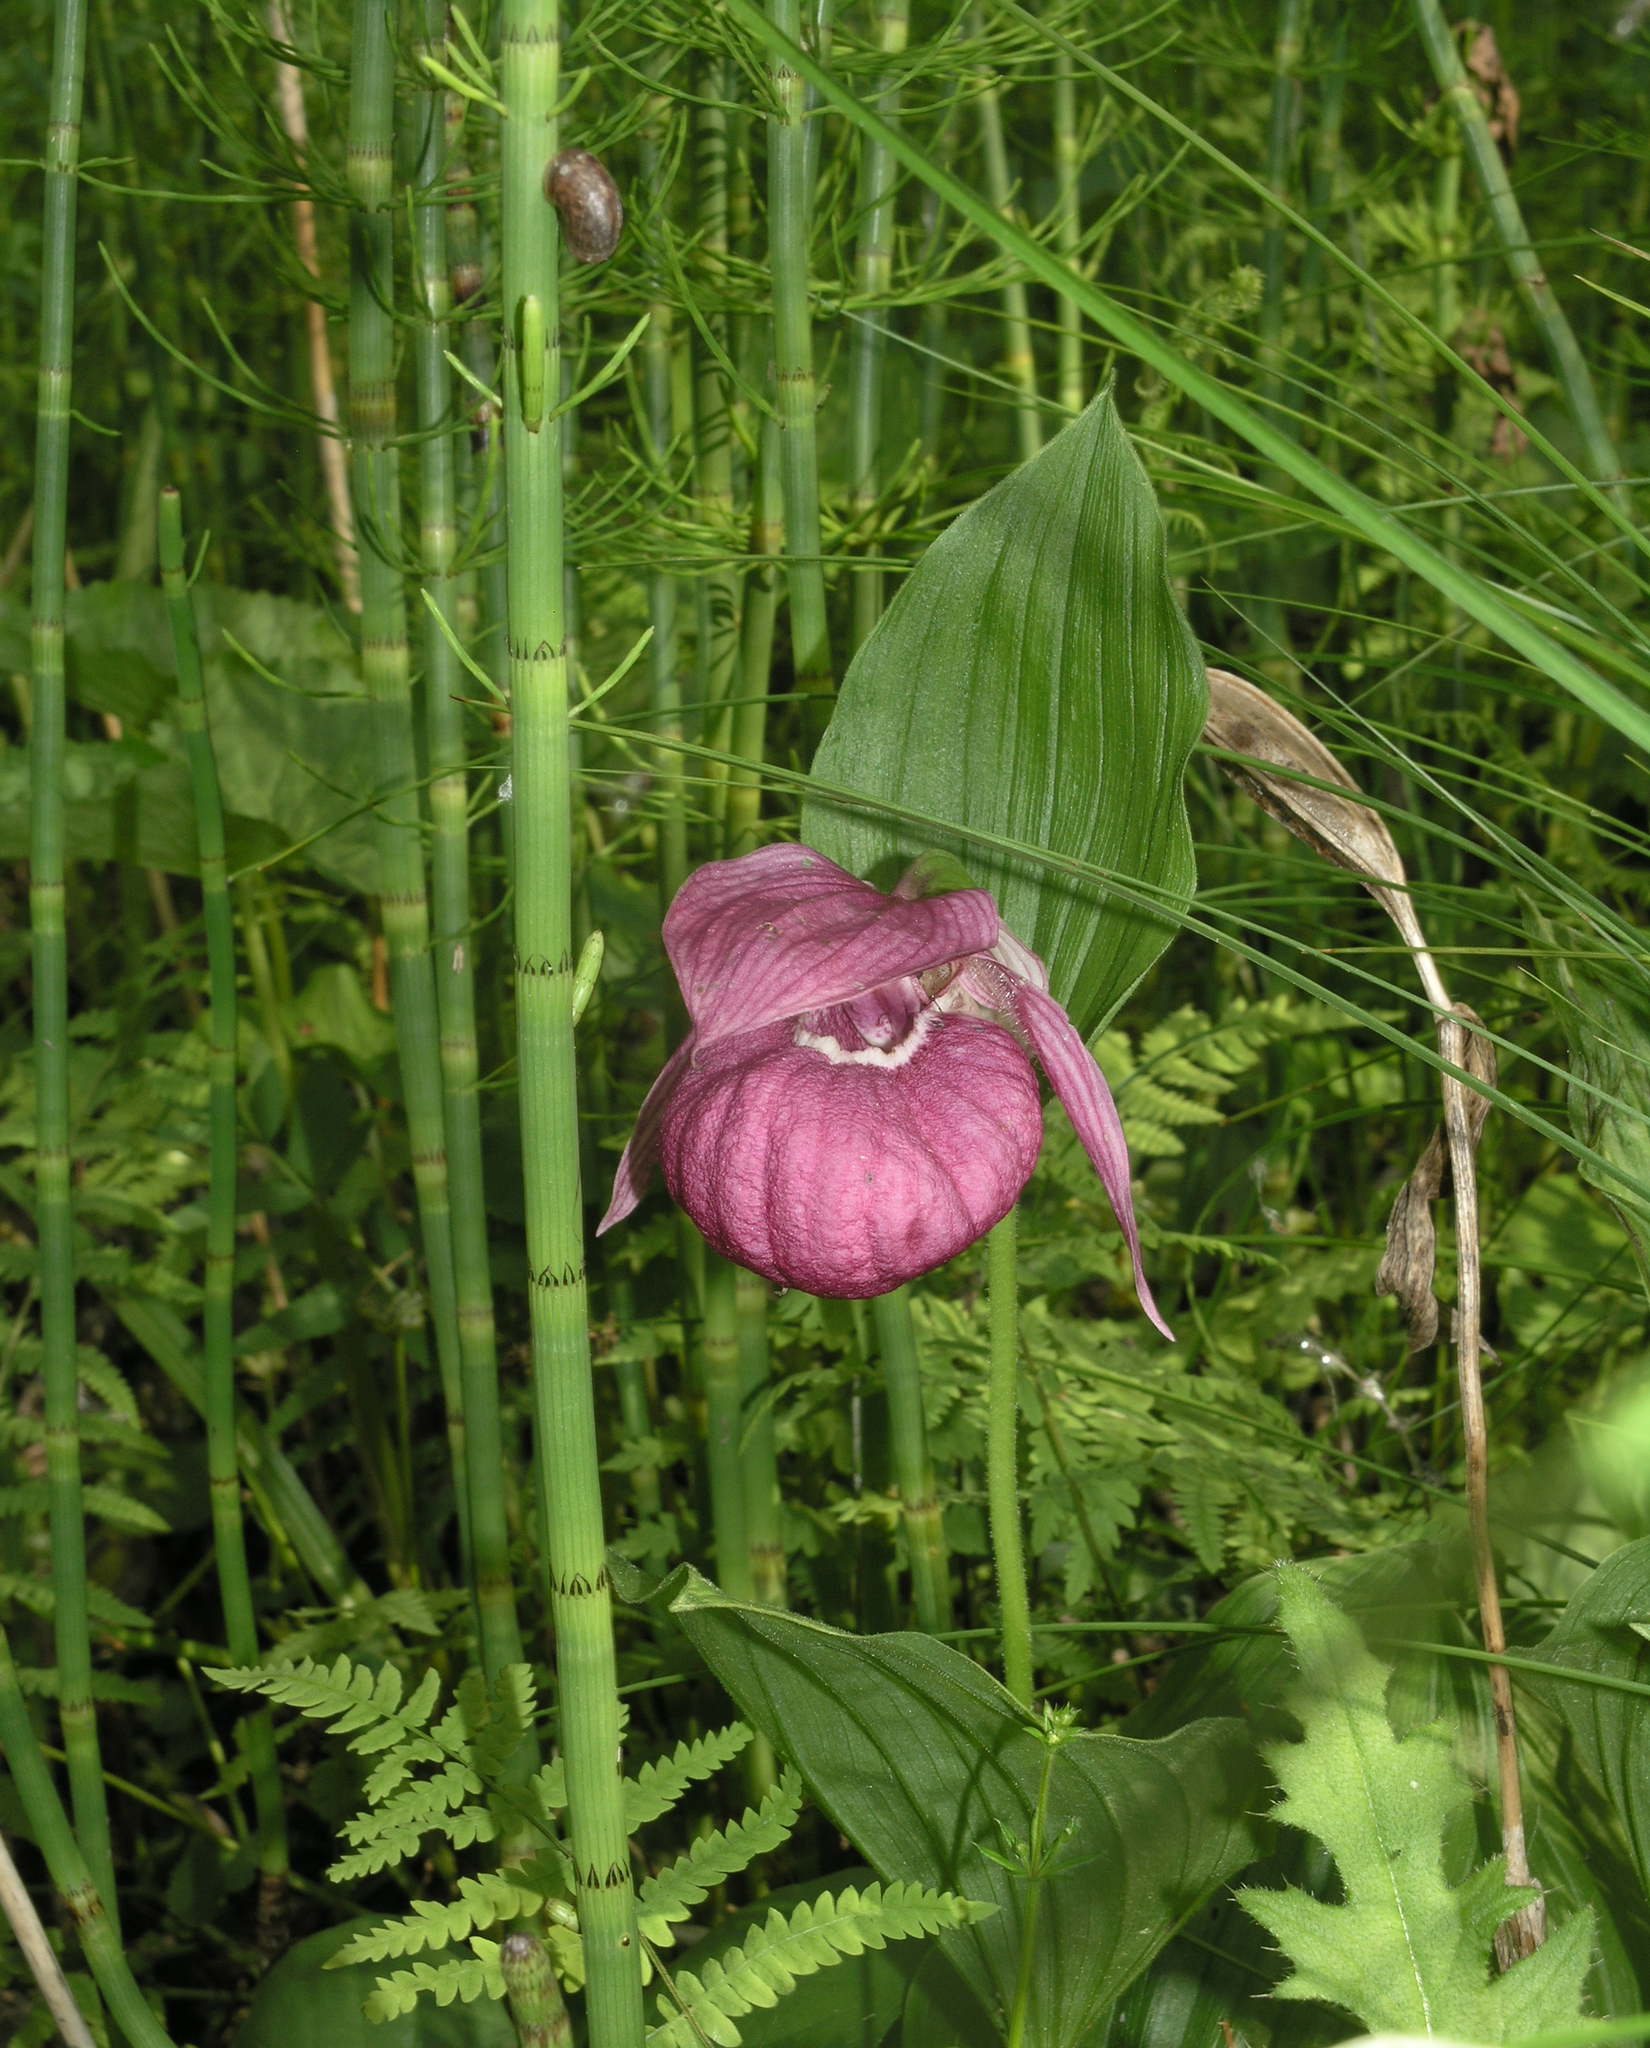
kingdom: Plantae
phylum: Tracheophyta
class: Liliopsida
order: Asparagales
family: Orchidaceae
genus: Cypripedium
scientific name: Cypripedium macranthos
